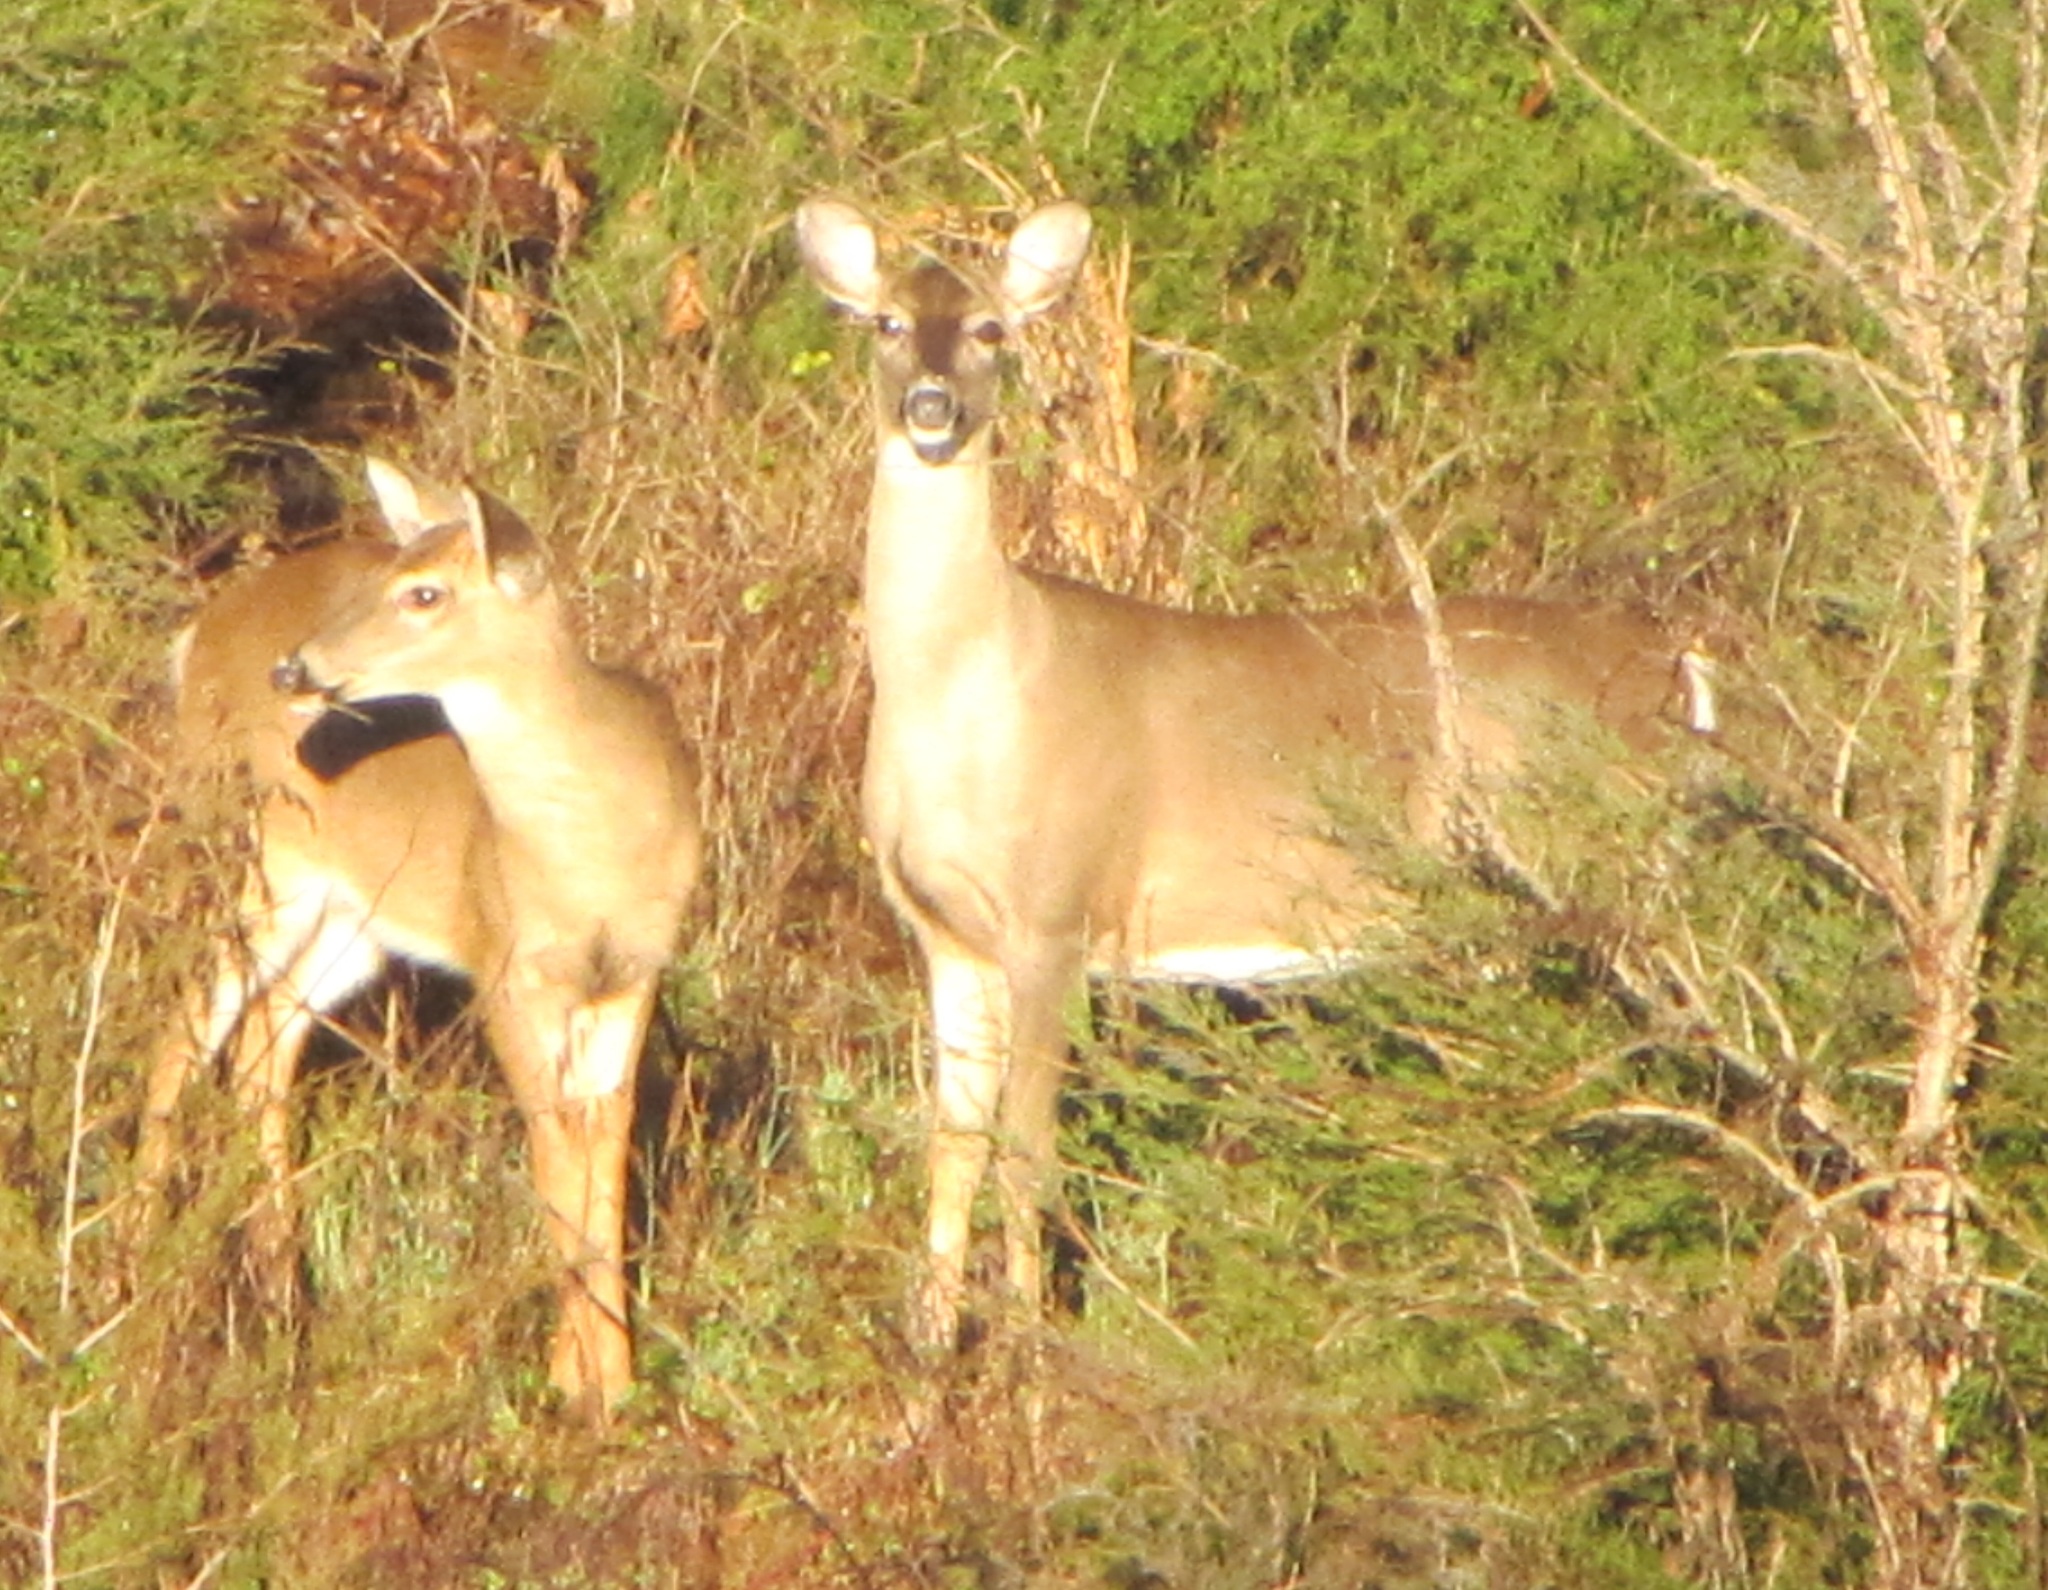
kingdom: Animalia
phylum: Chordata
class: Mammalia
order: Artiodactyla
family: Cervidae
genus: Odocoileus
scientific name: Odocoileus virginianus
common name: White-tailed deer
